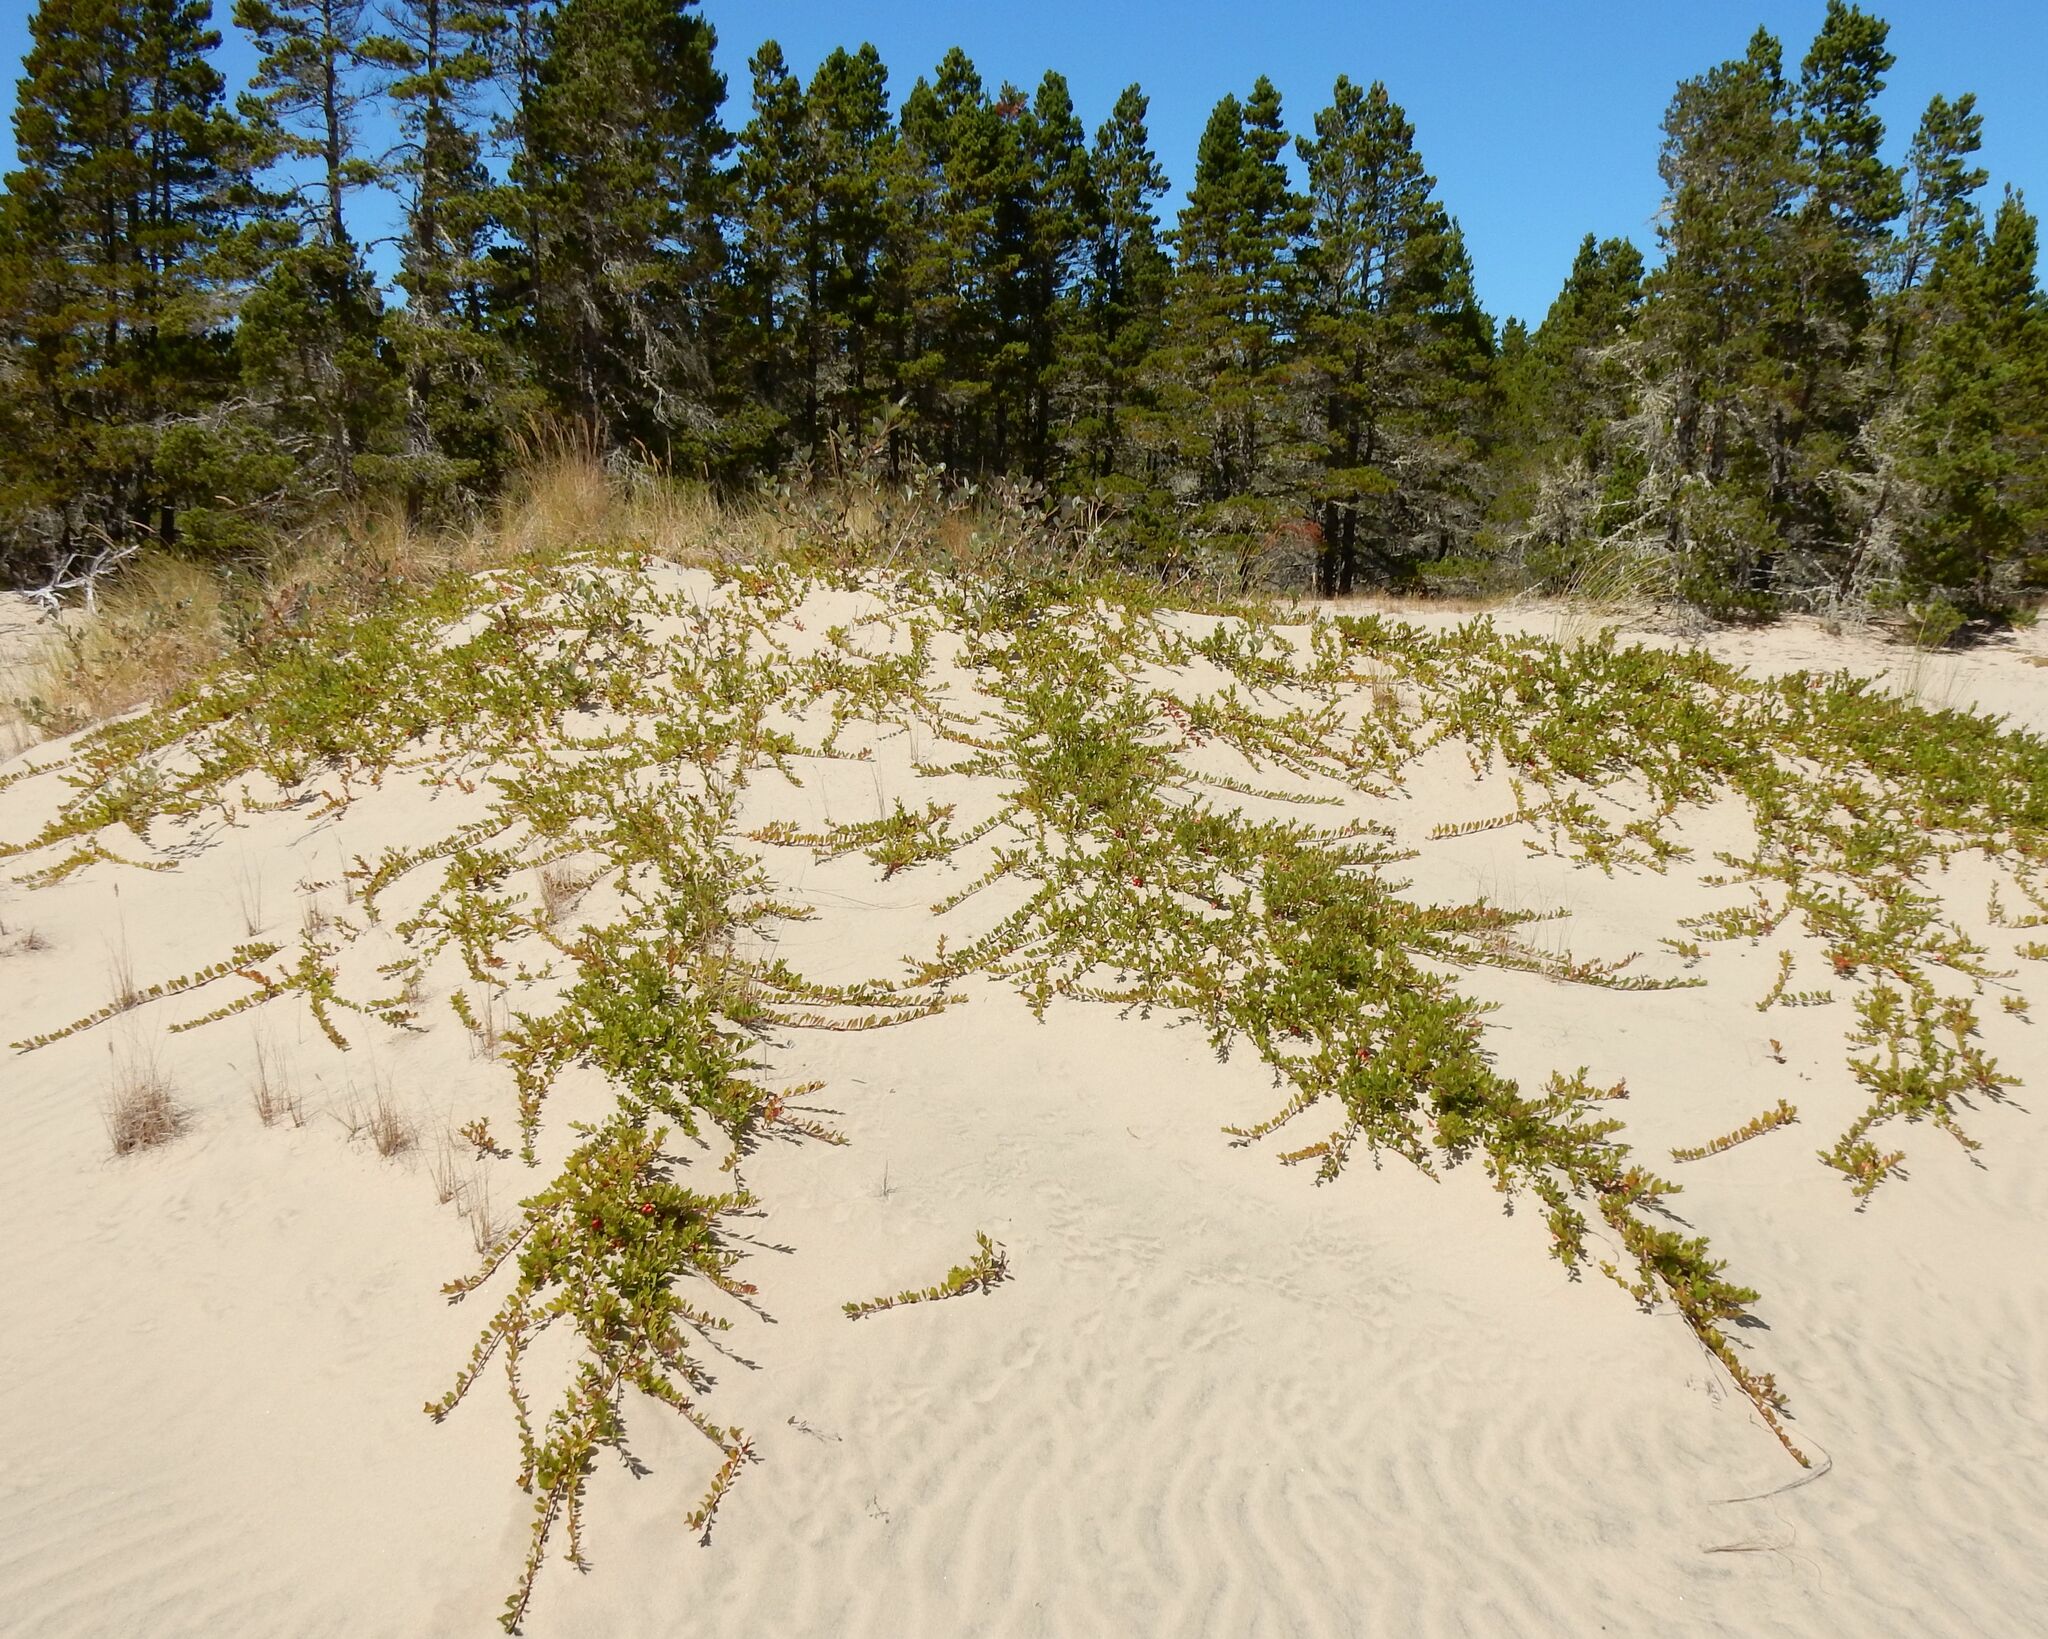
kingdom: Plantae
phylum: Tracheophyta
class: Magnoliopsida
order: Ericales
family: Ericaceae
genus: Arctostaphylos
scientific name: Arctostaphylos uva-ursi
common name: Bearberry
